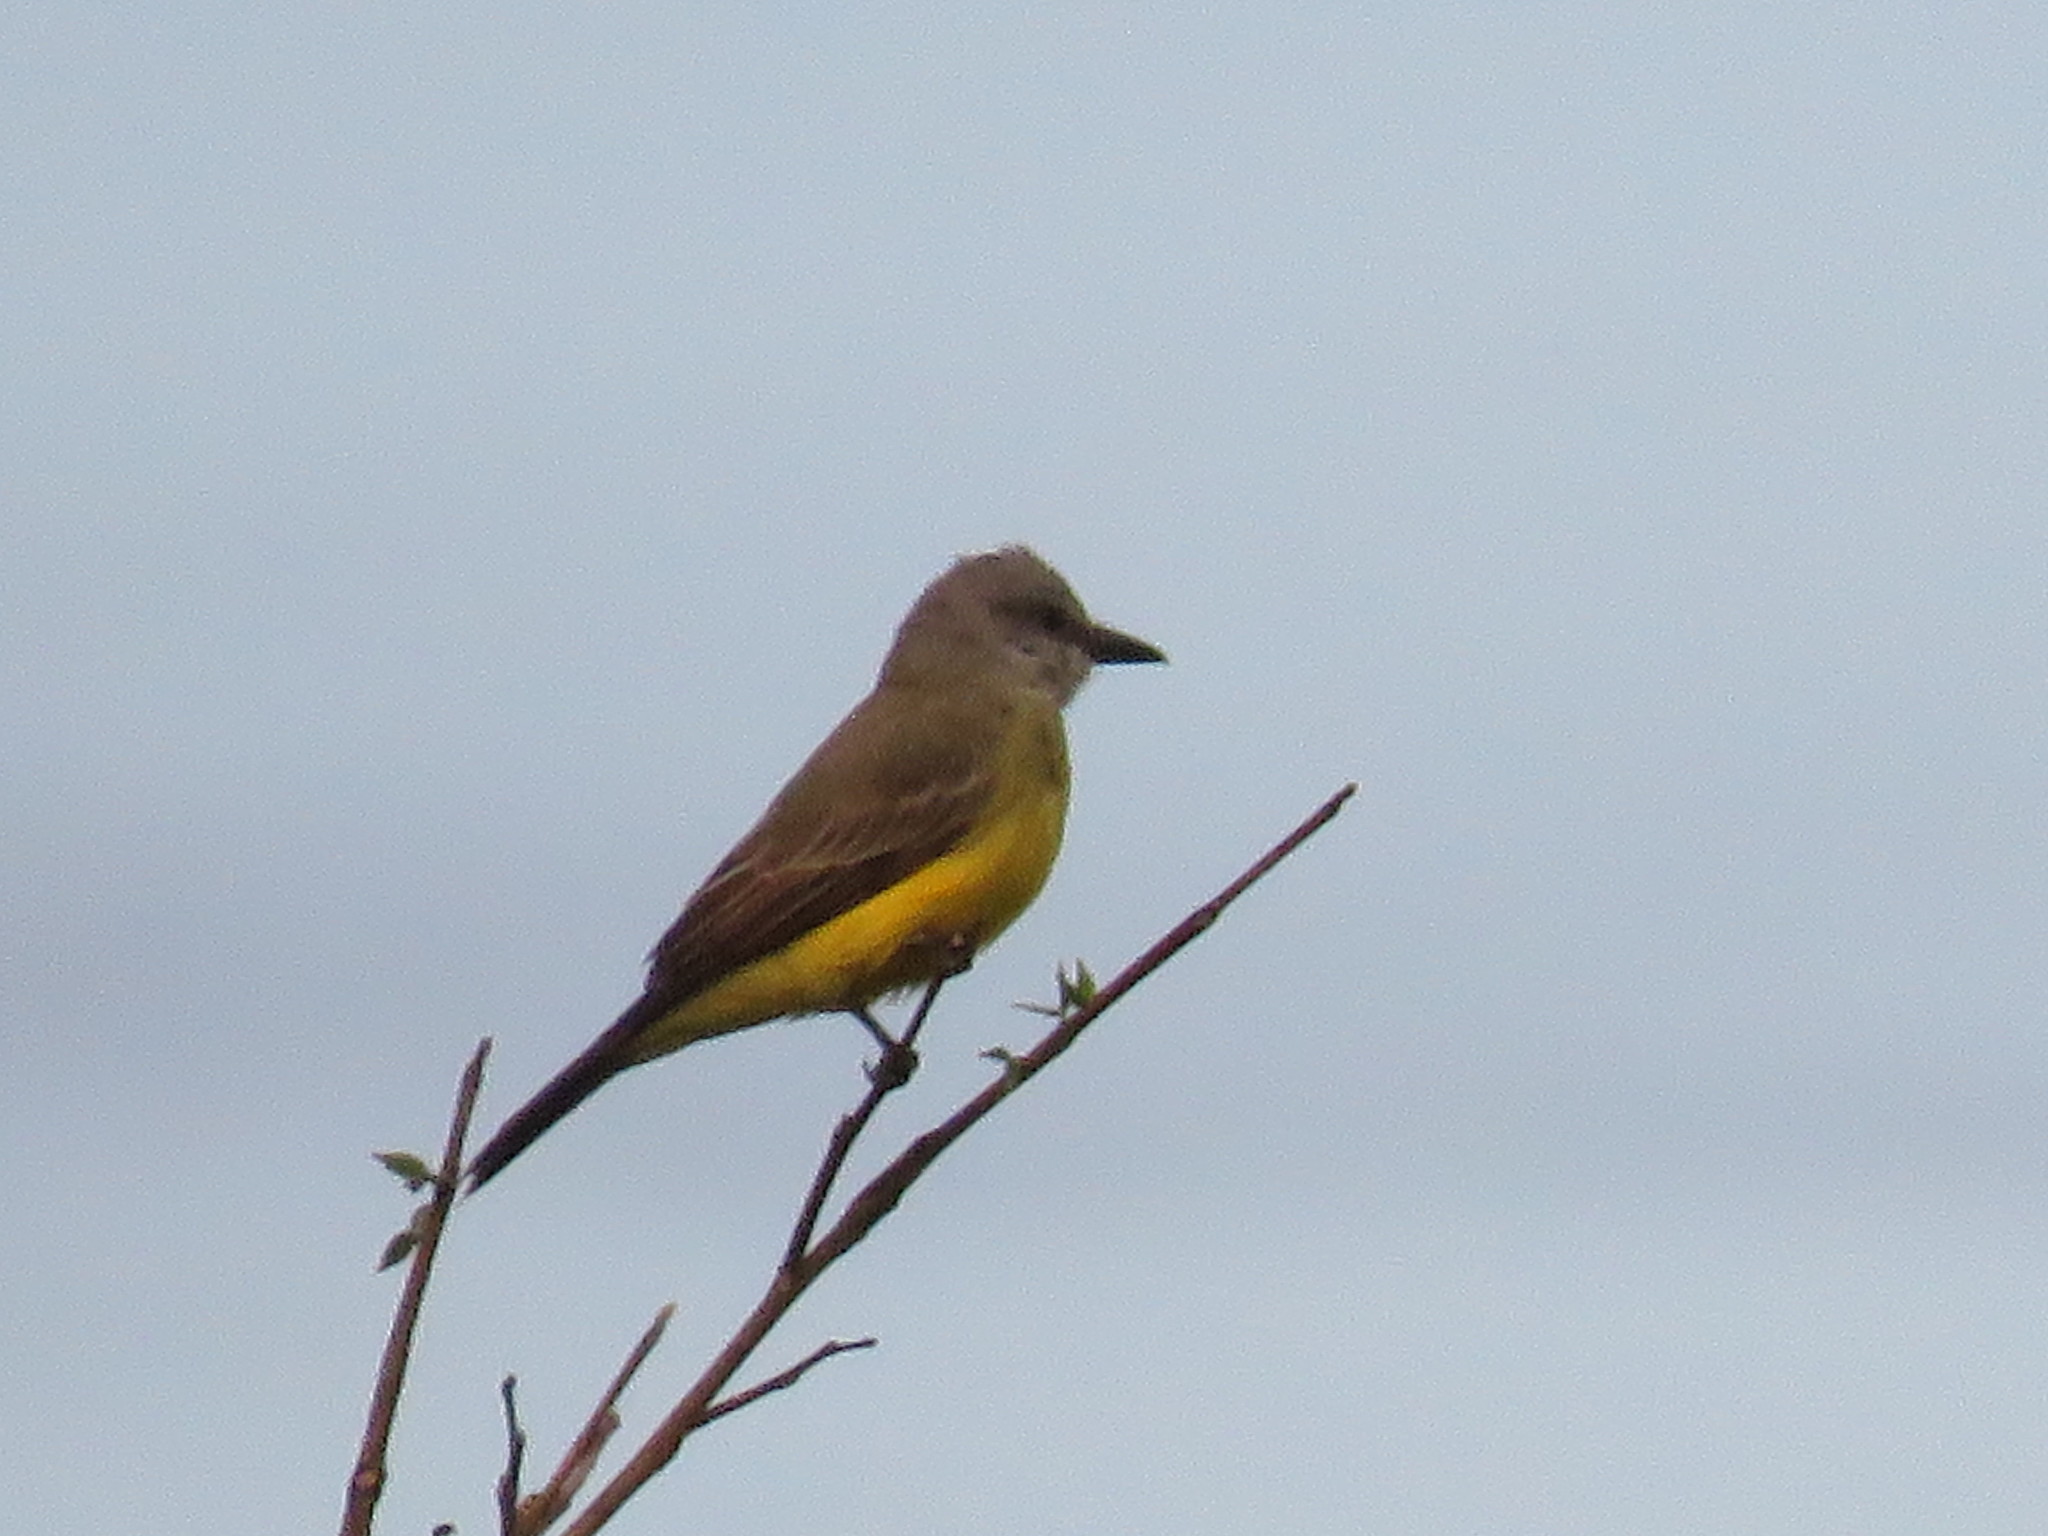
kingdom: Animalia
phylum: Chordata
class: Aves
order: Passeriformes
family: Tyrannidae
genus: Tyrannus
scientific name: Tyrannus melancholicus
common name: Tropical kingbird
